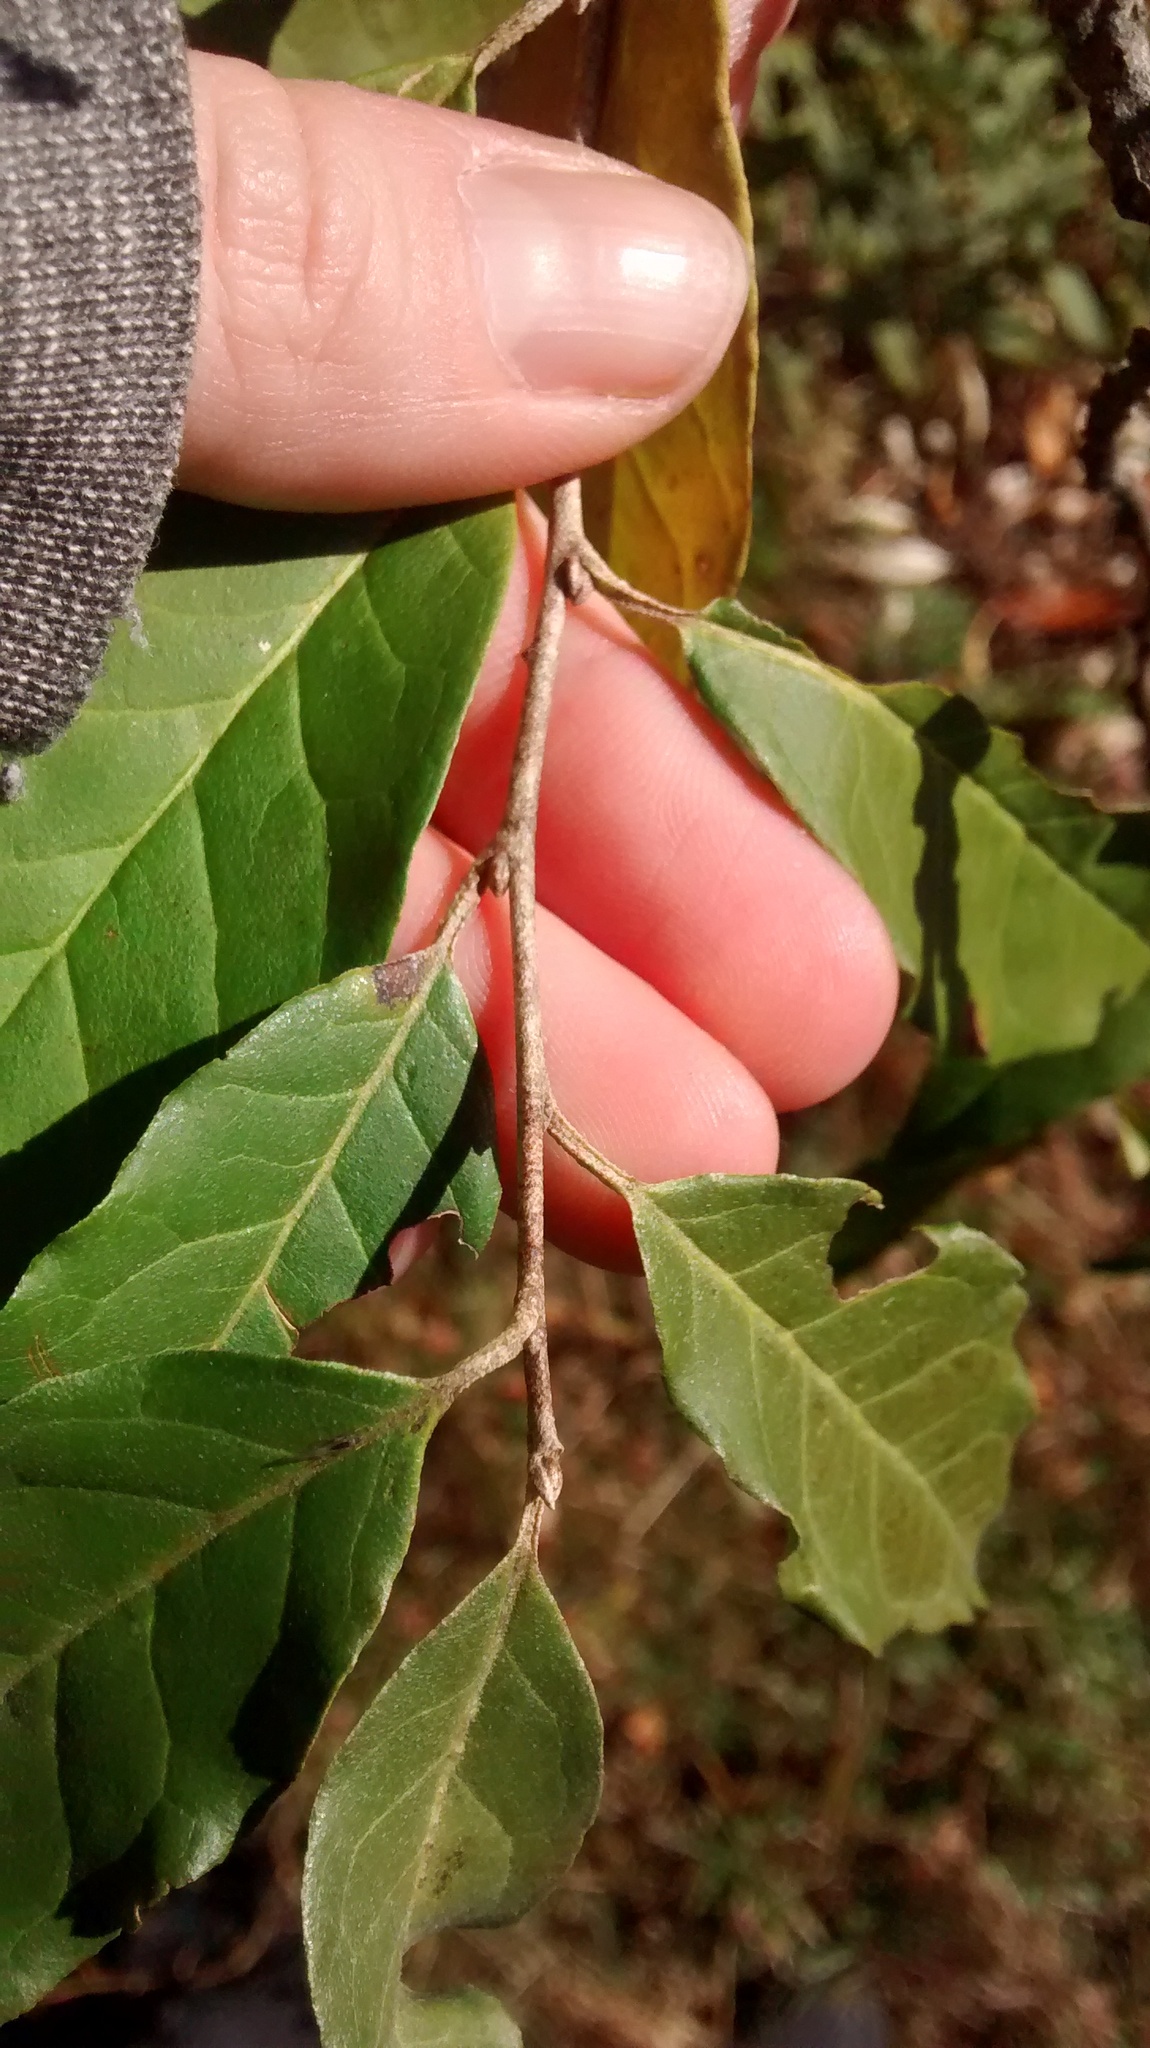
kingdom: Plantae
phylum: Tracheophyta
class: Magnoliopsida
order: Rosales
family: Elaeagnaceae
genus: Elaeagnus
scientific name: Elaeagnus umbellata
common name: Autumn olive
